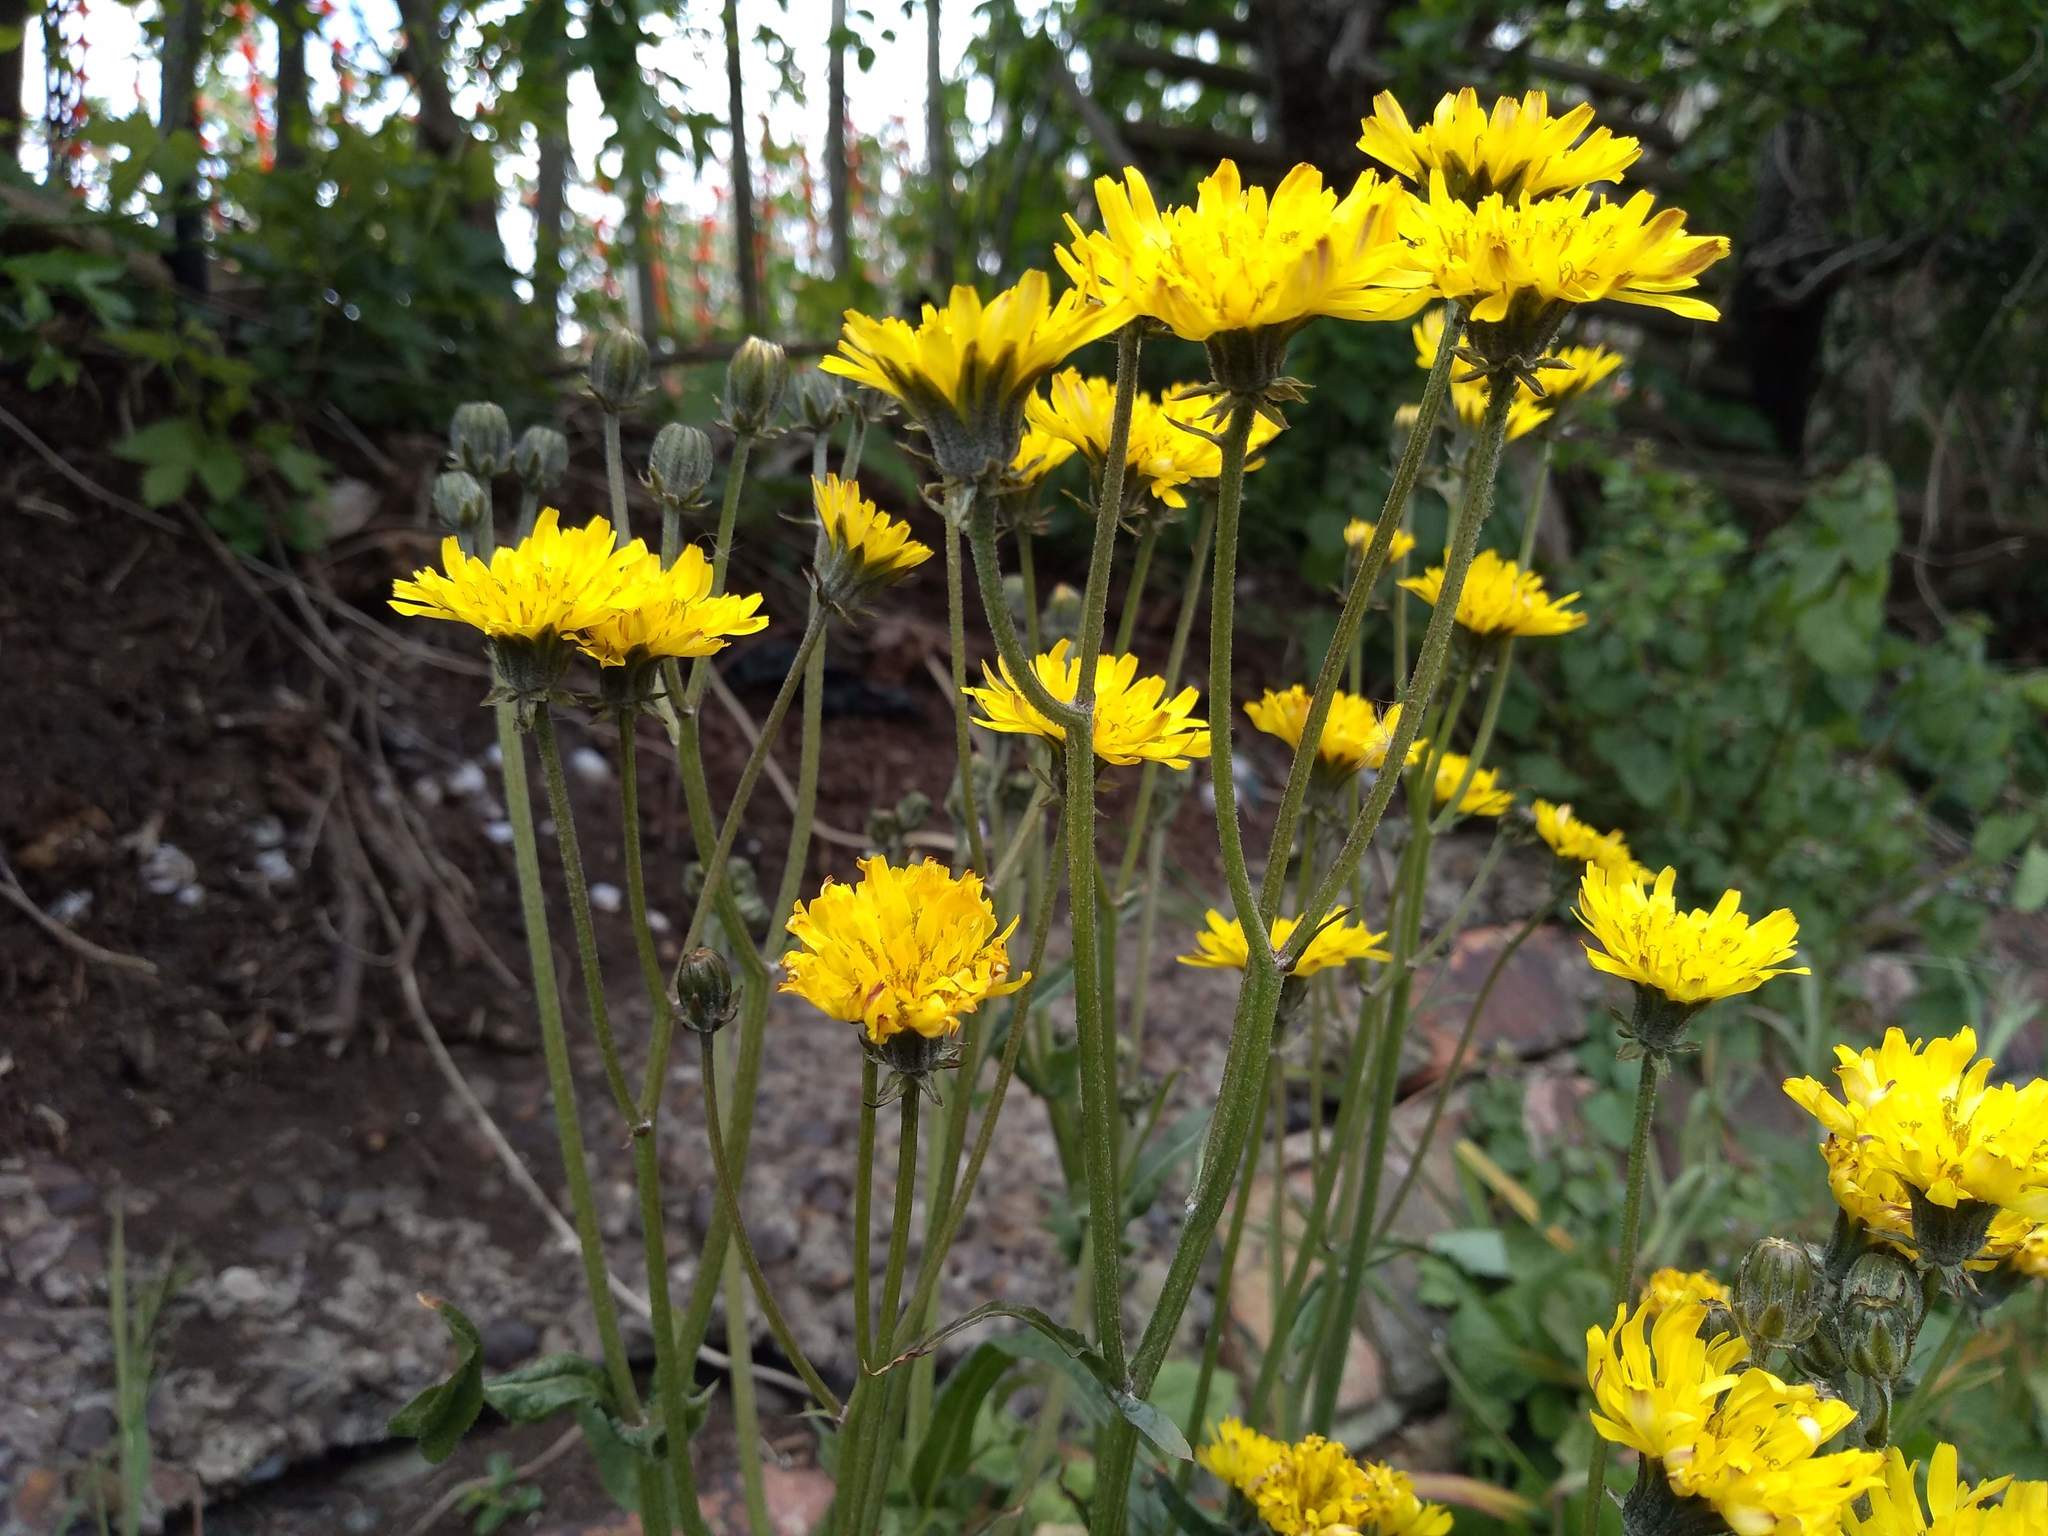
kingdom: Plantae
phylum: Tracheophyta
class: Magnoliopsida
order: Asterales
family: Asteraceae
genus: Crepis
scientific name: Crepis vesicaria
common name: Beaked hawksbeard
